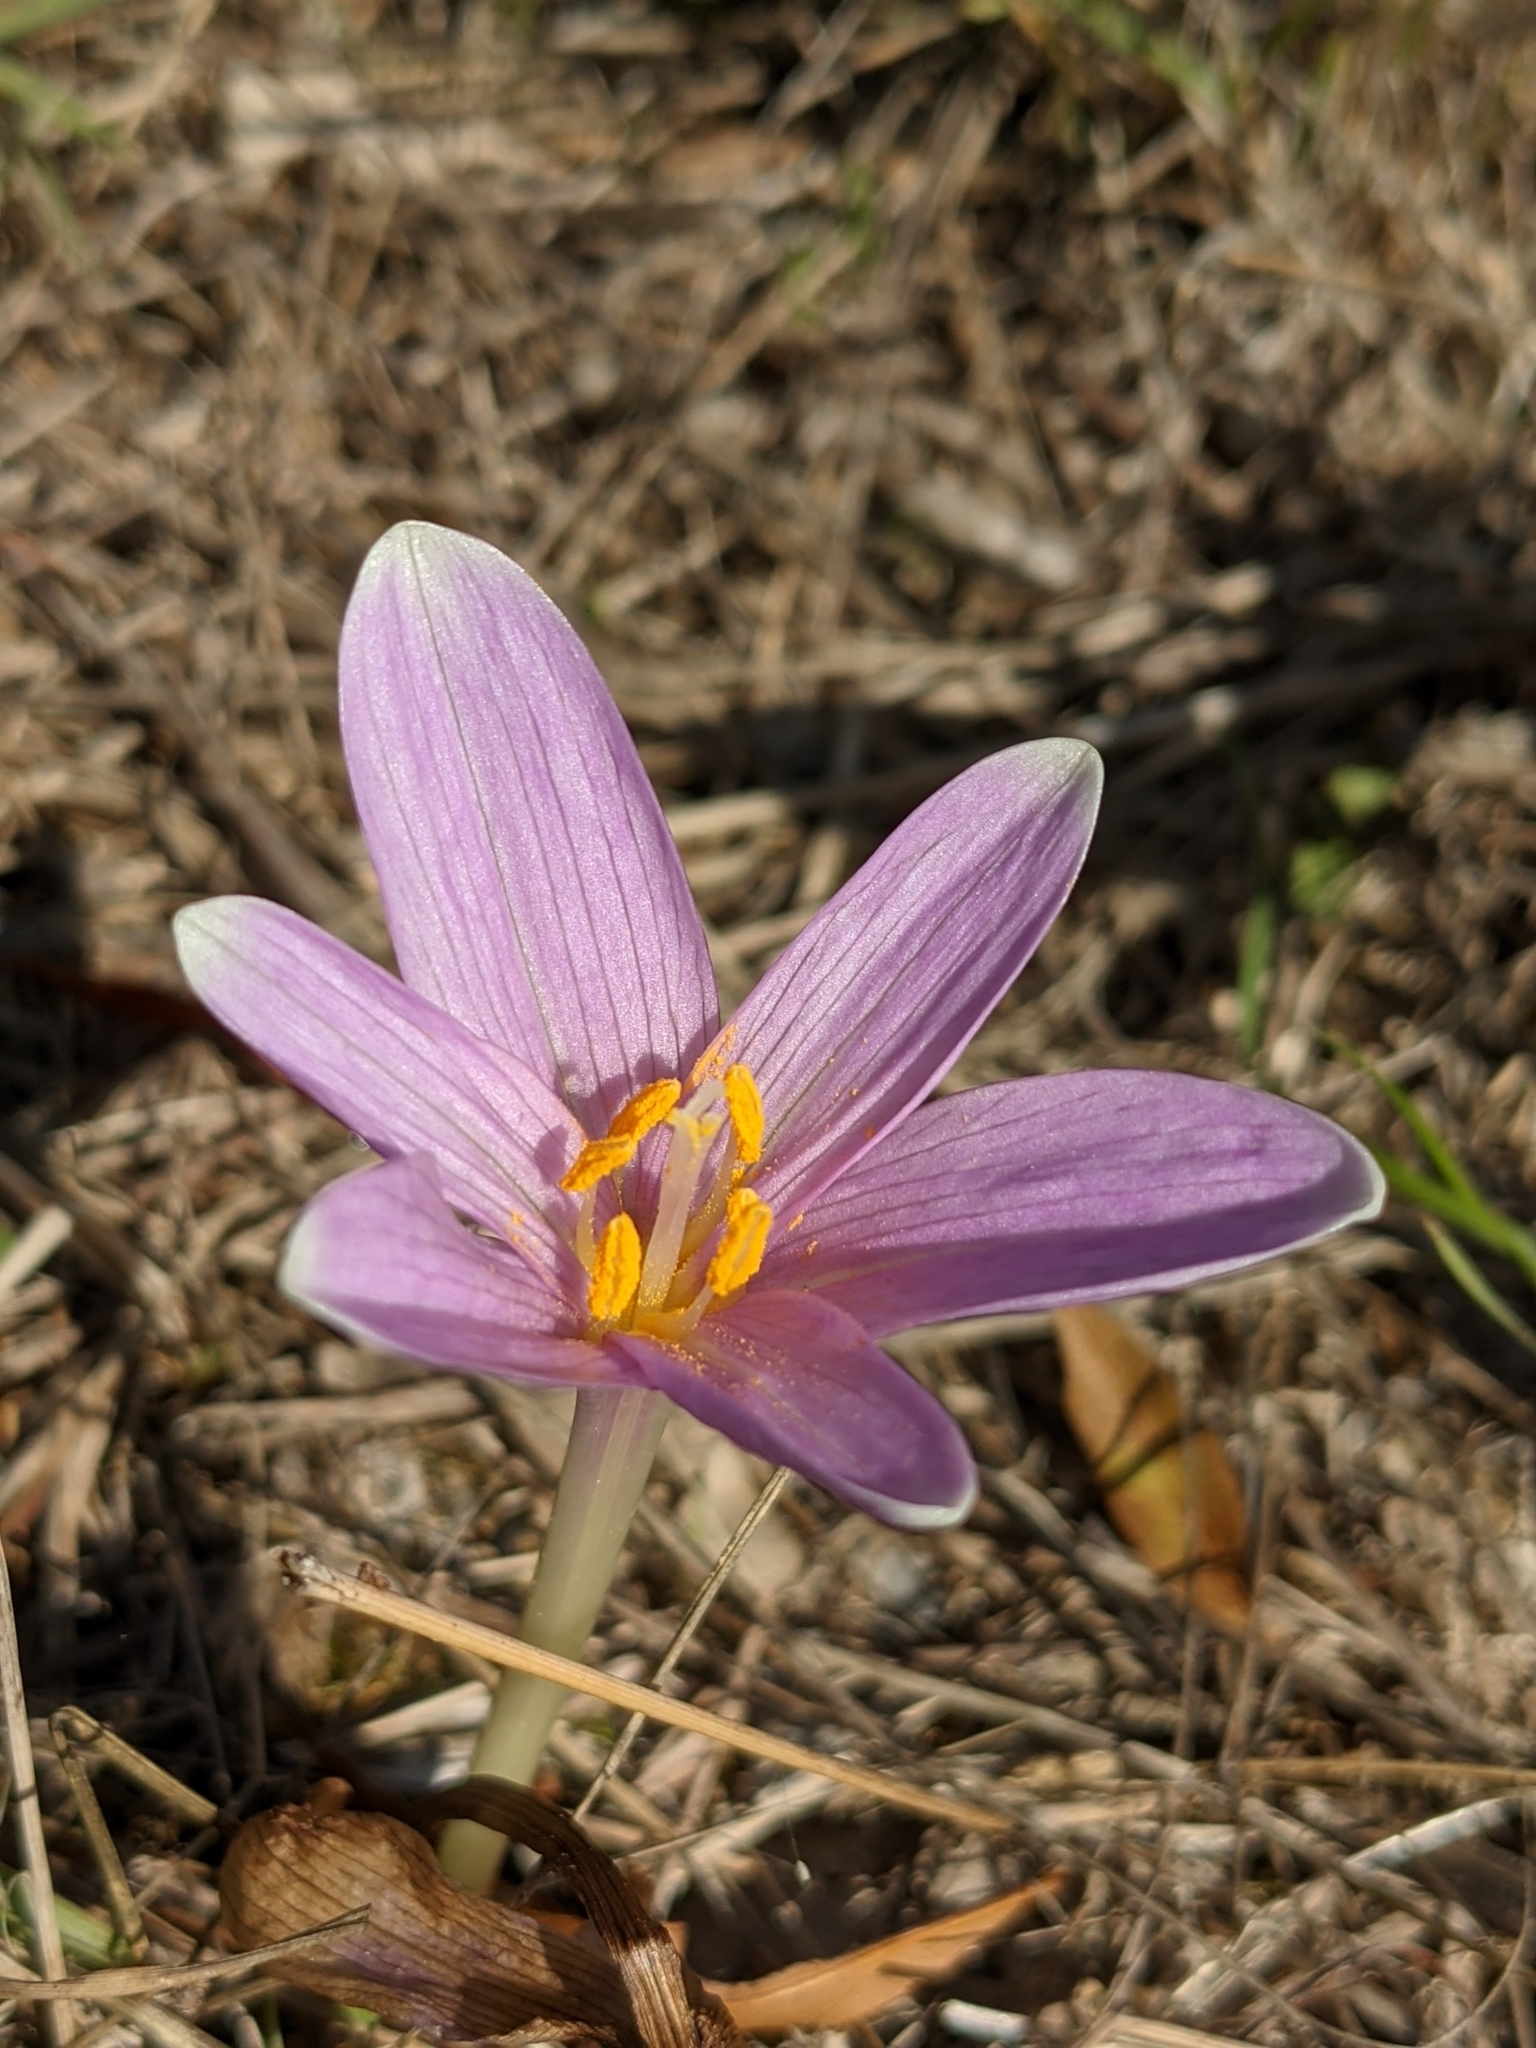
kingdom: Plantae
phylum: Tracheophyta
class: Liliopsida
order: Liliales
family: Colchicaceae
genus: Colchicum
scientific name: Colchicum longifolium
